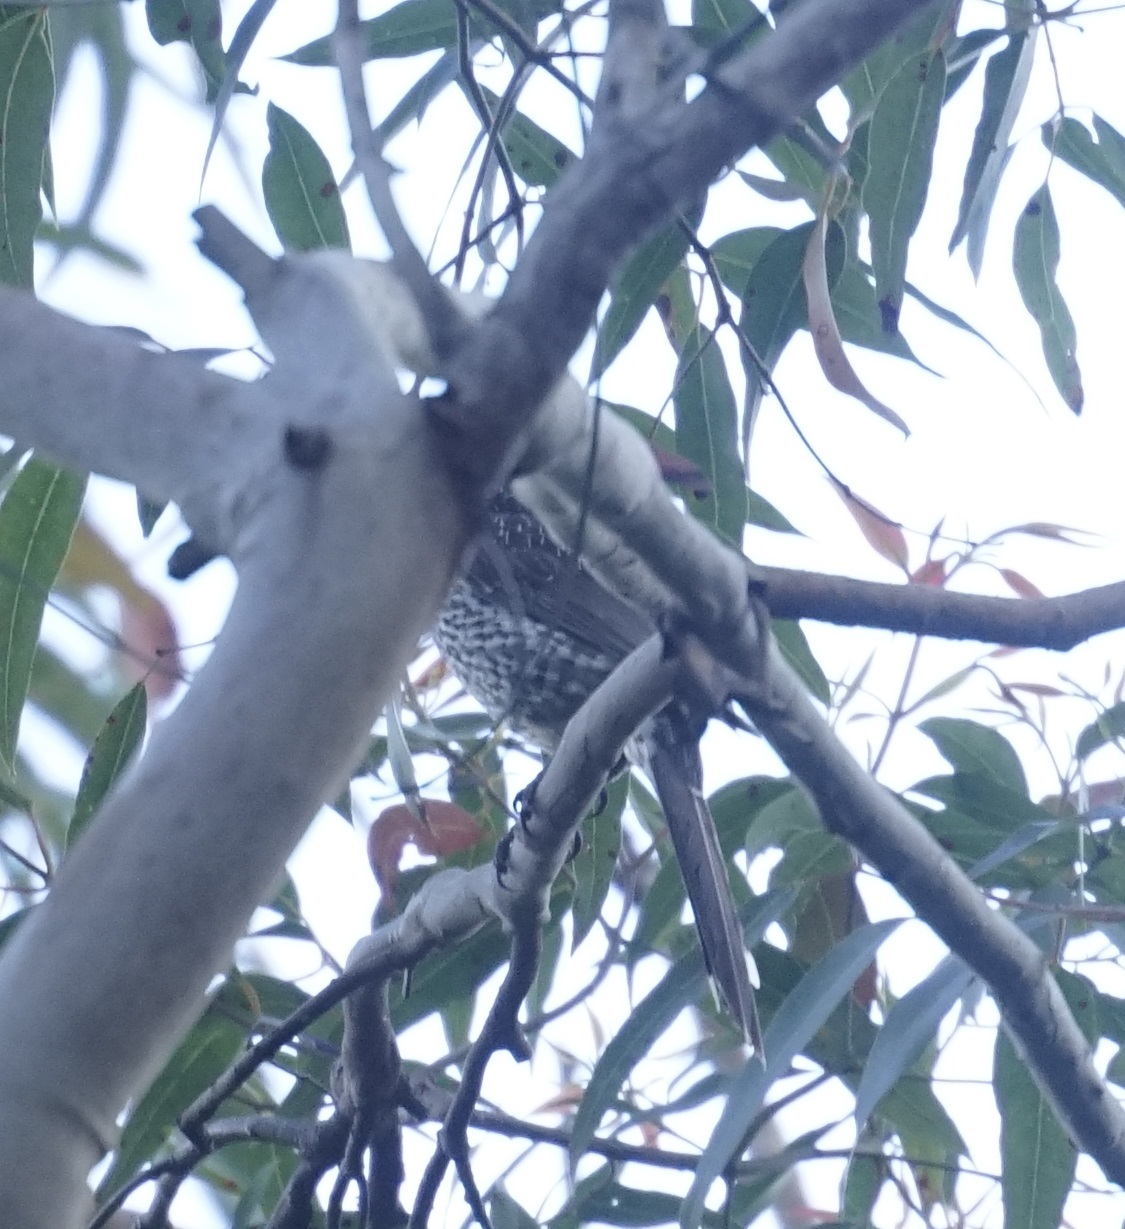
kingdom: Animalia
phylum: Chordata
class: Aves
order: Passeriformes
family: Meliphagidae
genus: Anthochaera
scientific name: Anthochaera chrysoptera
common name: Little wattlebird
